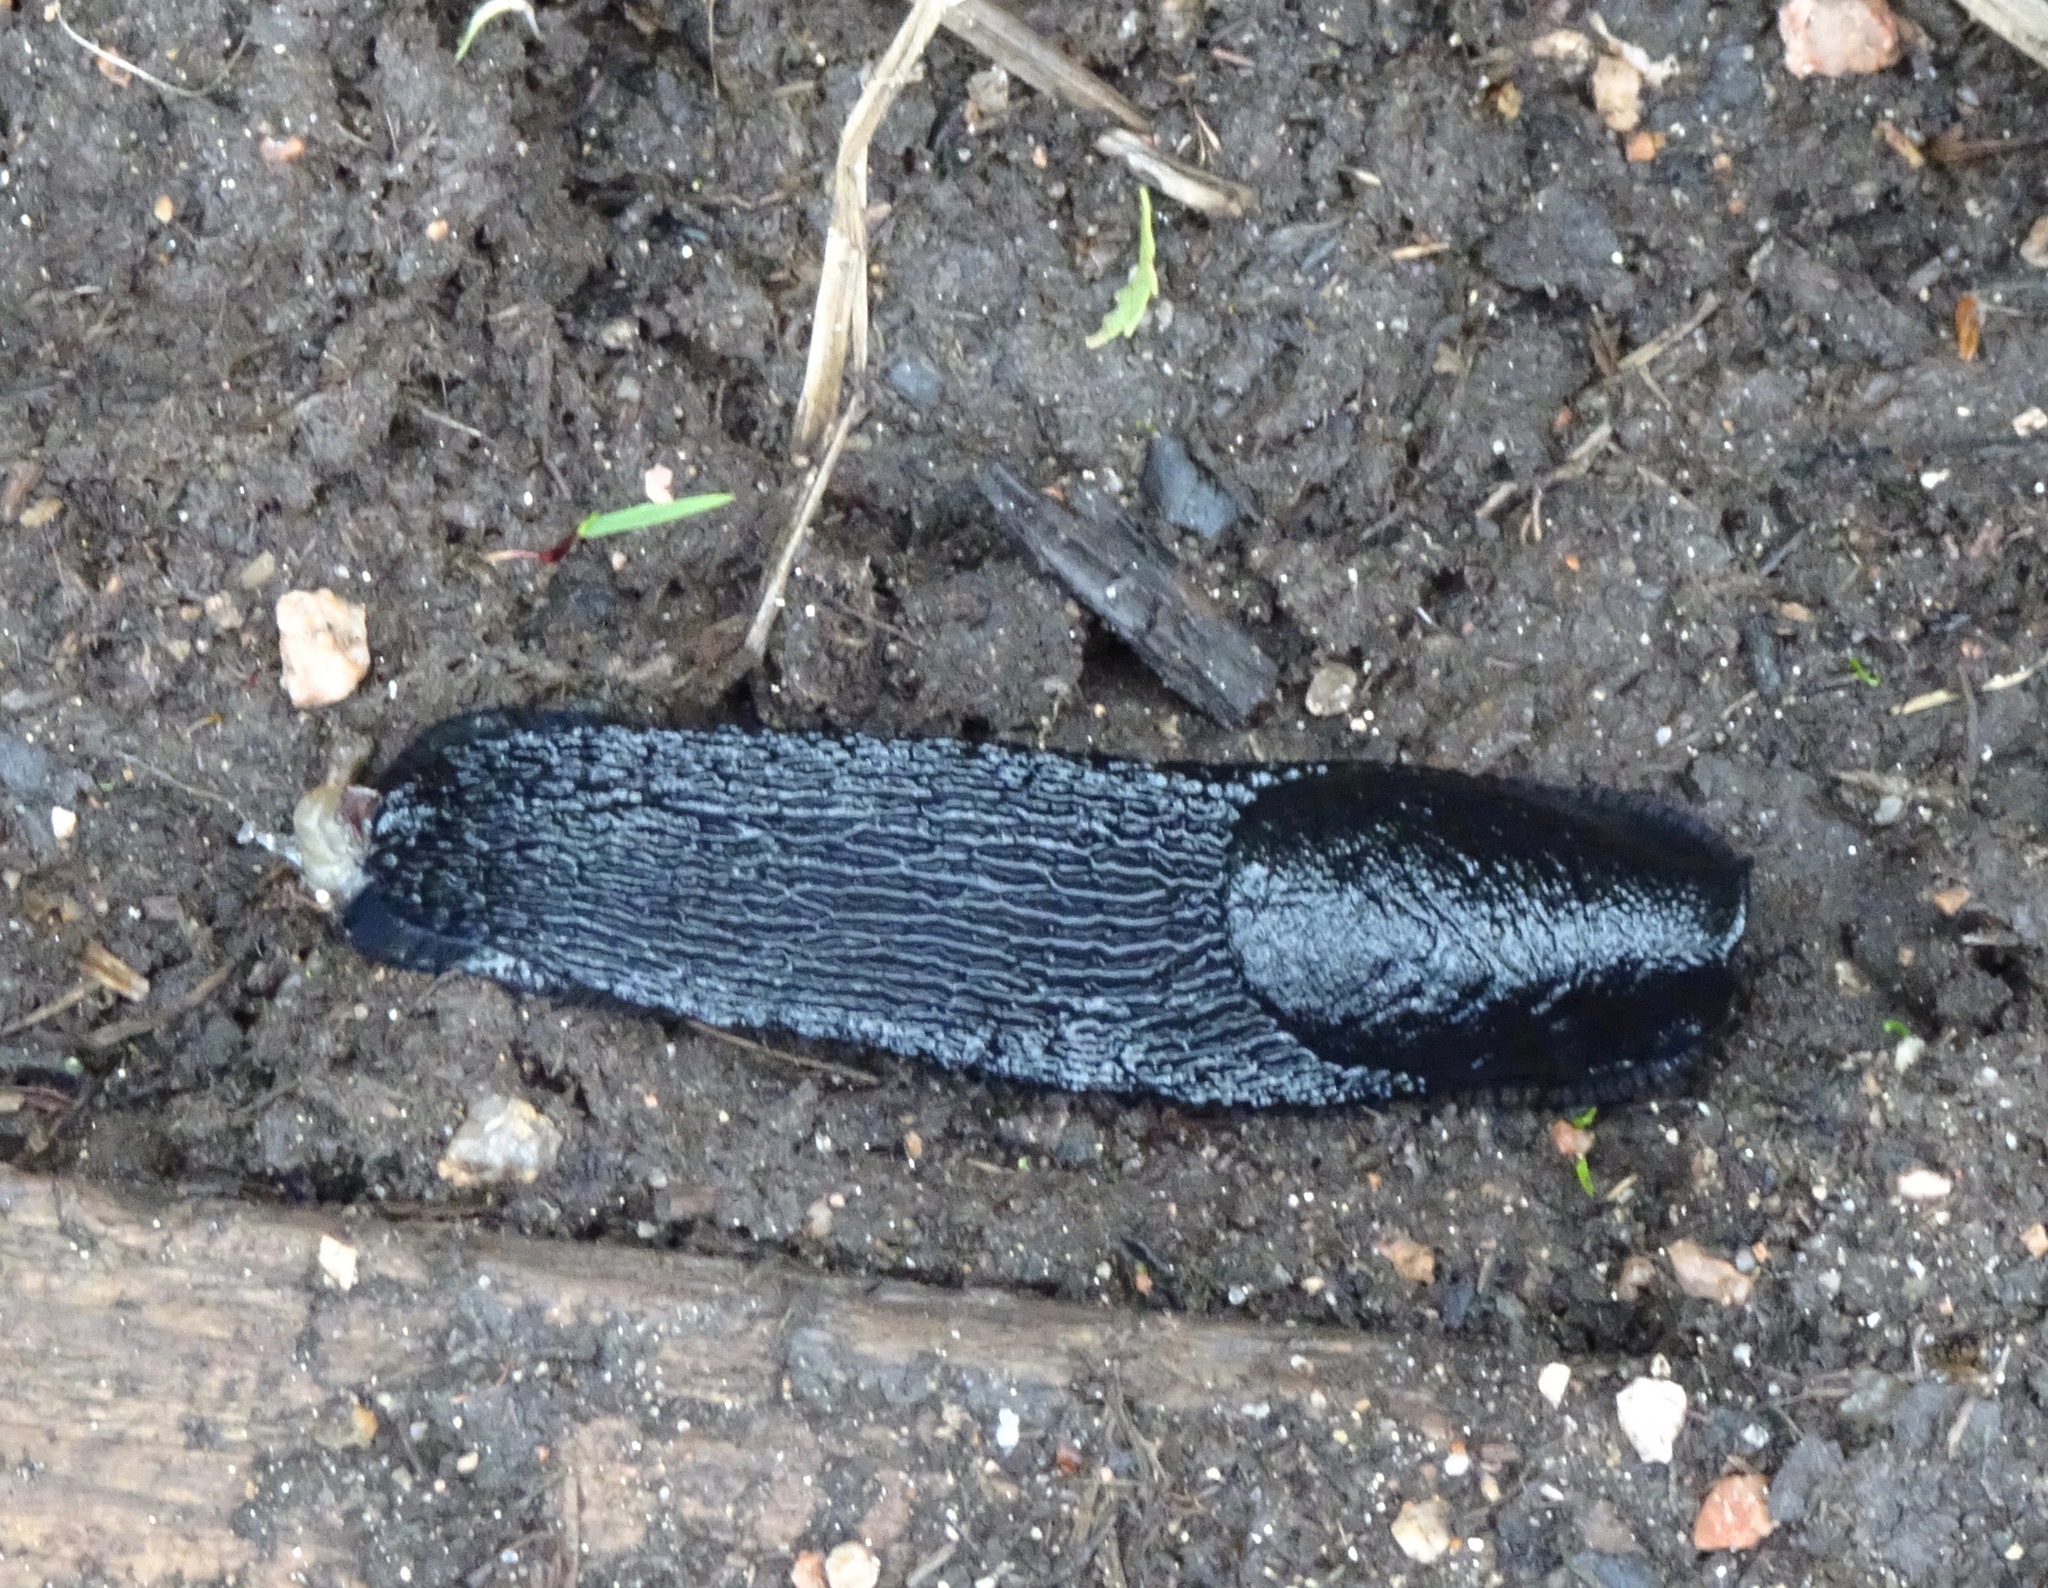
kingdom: Animalia
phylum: Mollusca
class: Gastropoda
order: Stylommatophora
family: Arionidae
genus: Arion
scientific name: Arion ater
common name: Black arion
